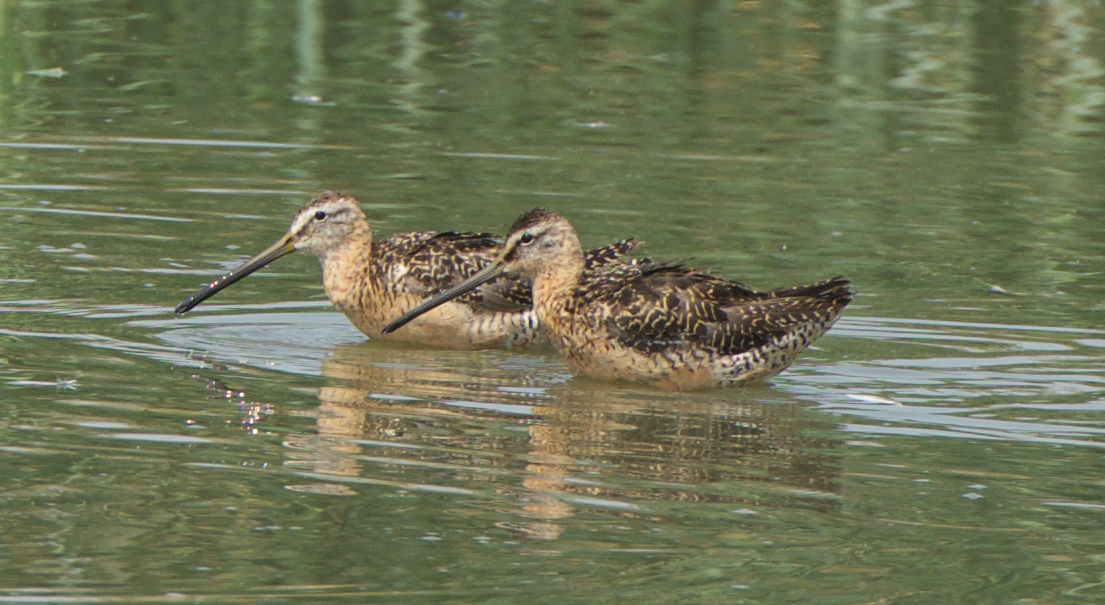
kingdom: Animalia
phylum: Chordata
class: Aves
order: Charadriiformes
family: Scolopacidae
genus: Limnodromus
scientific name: Limnodromus scolopaceus
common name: Long-billed dowitcher
